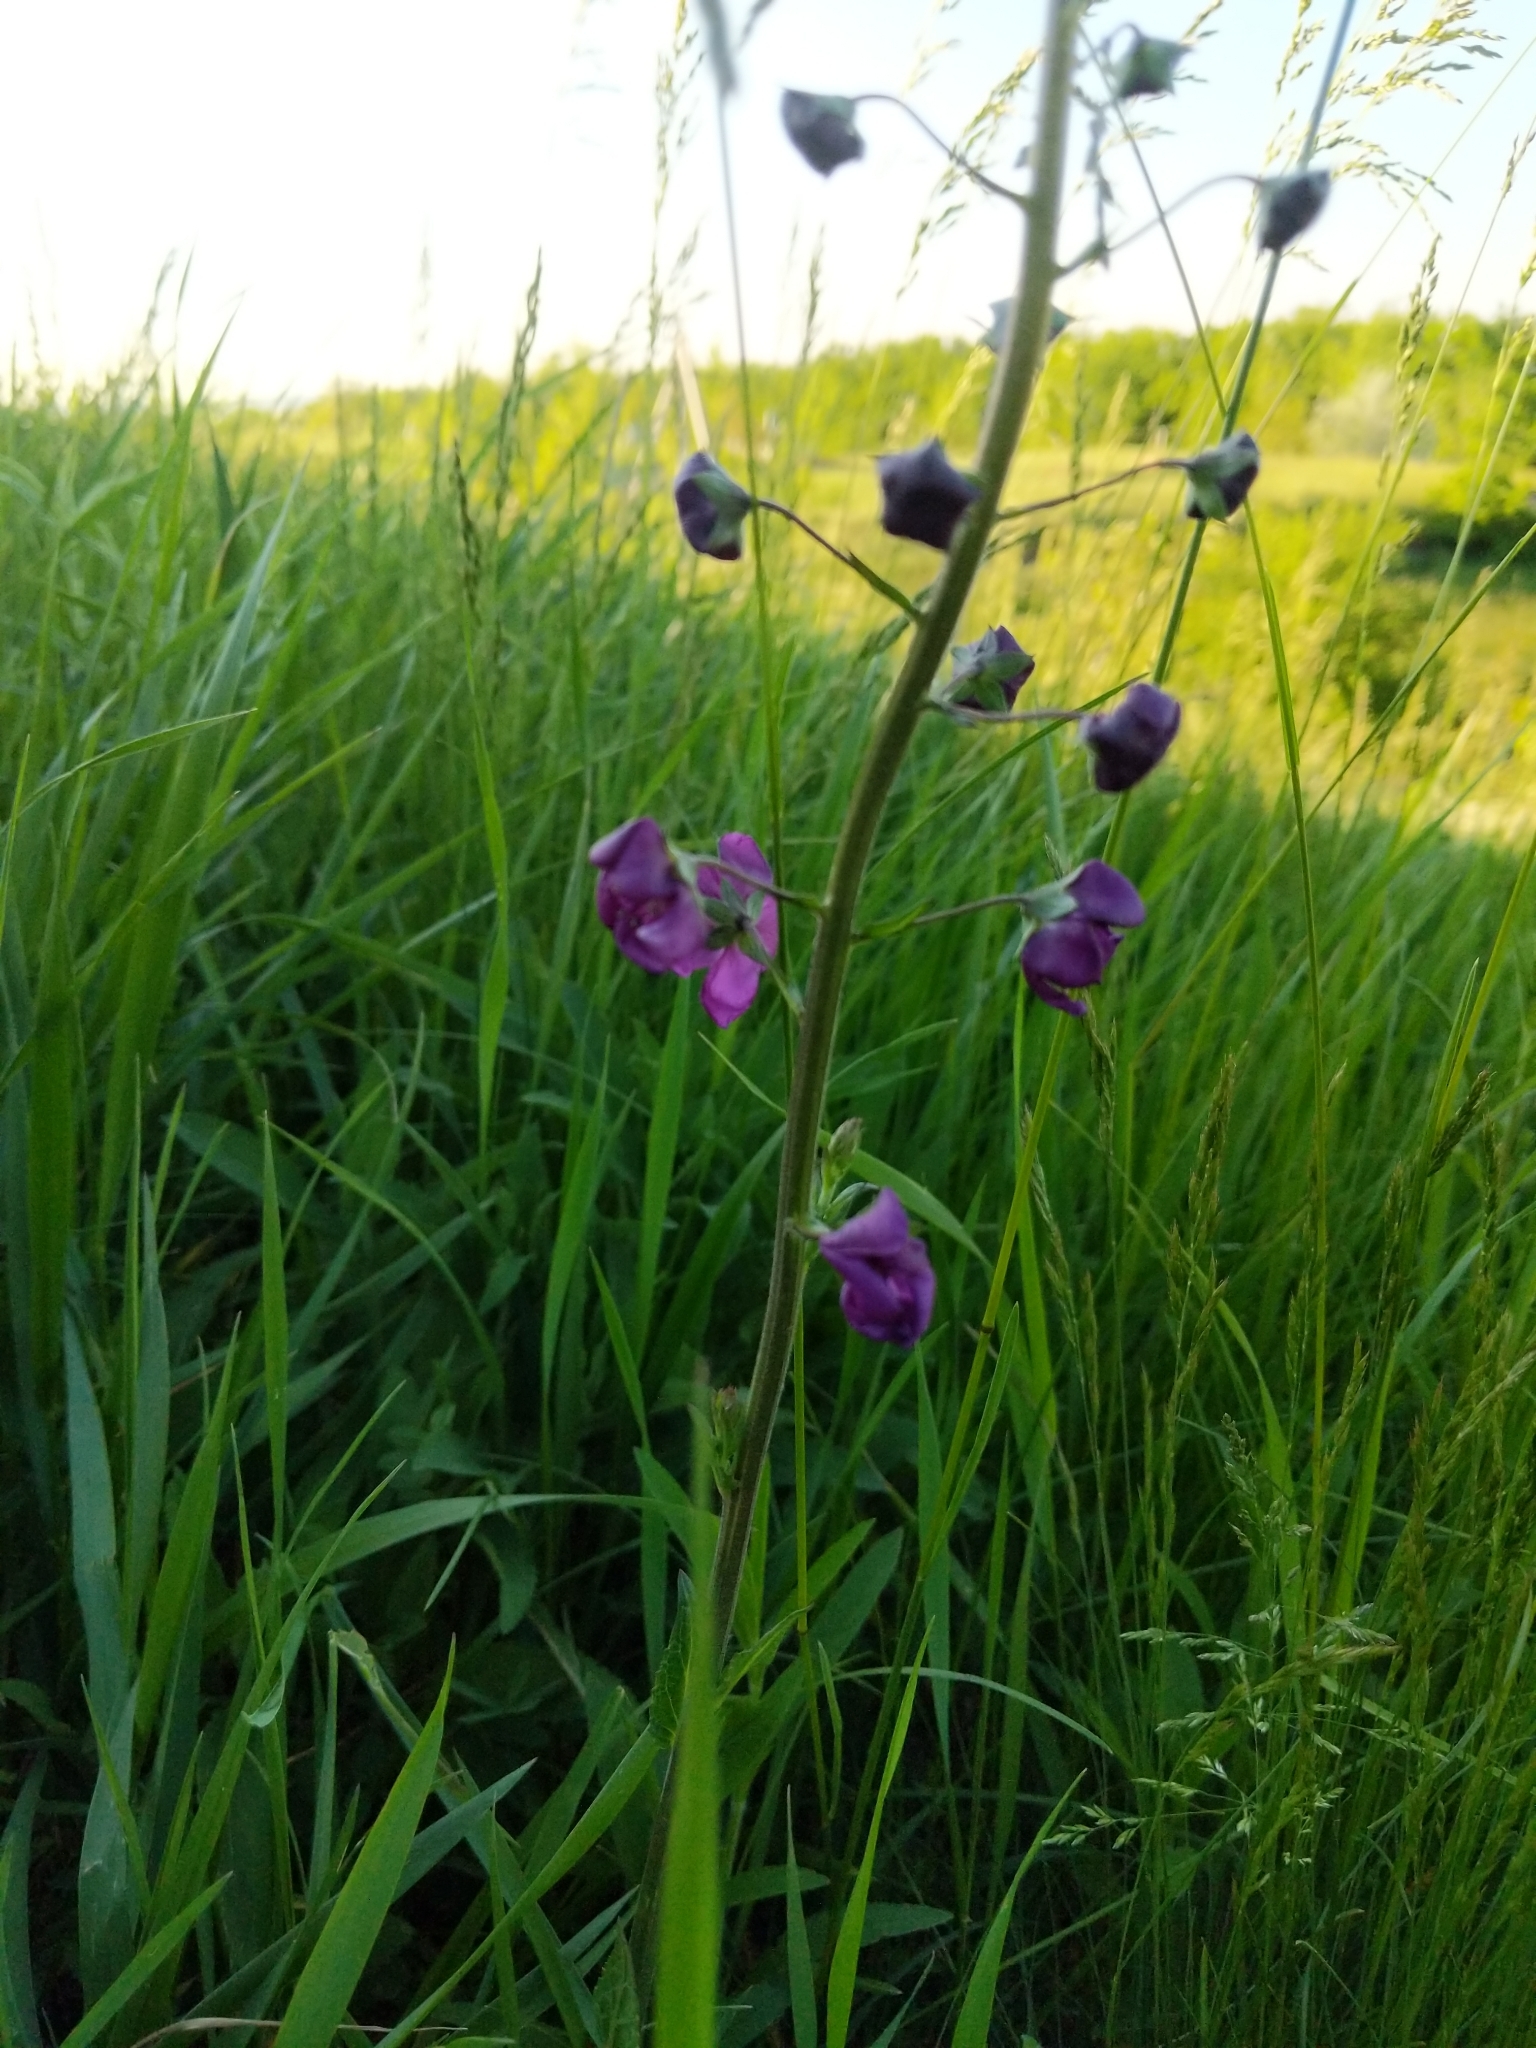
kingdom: Plantae
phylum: Tracheophyta
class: Magnoliopsida
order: Lamiales
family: Scrophulariaceae
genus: Verbascum
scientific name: Verbascum phoeniceum
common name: Purple mullein
